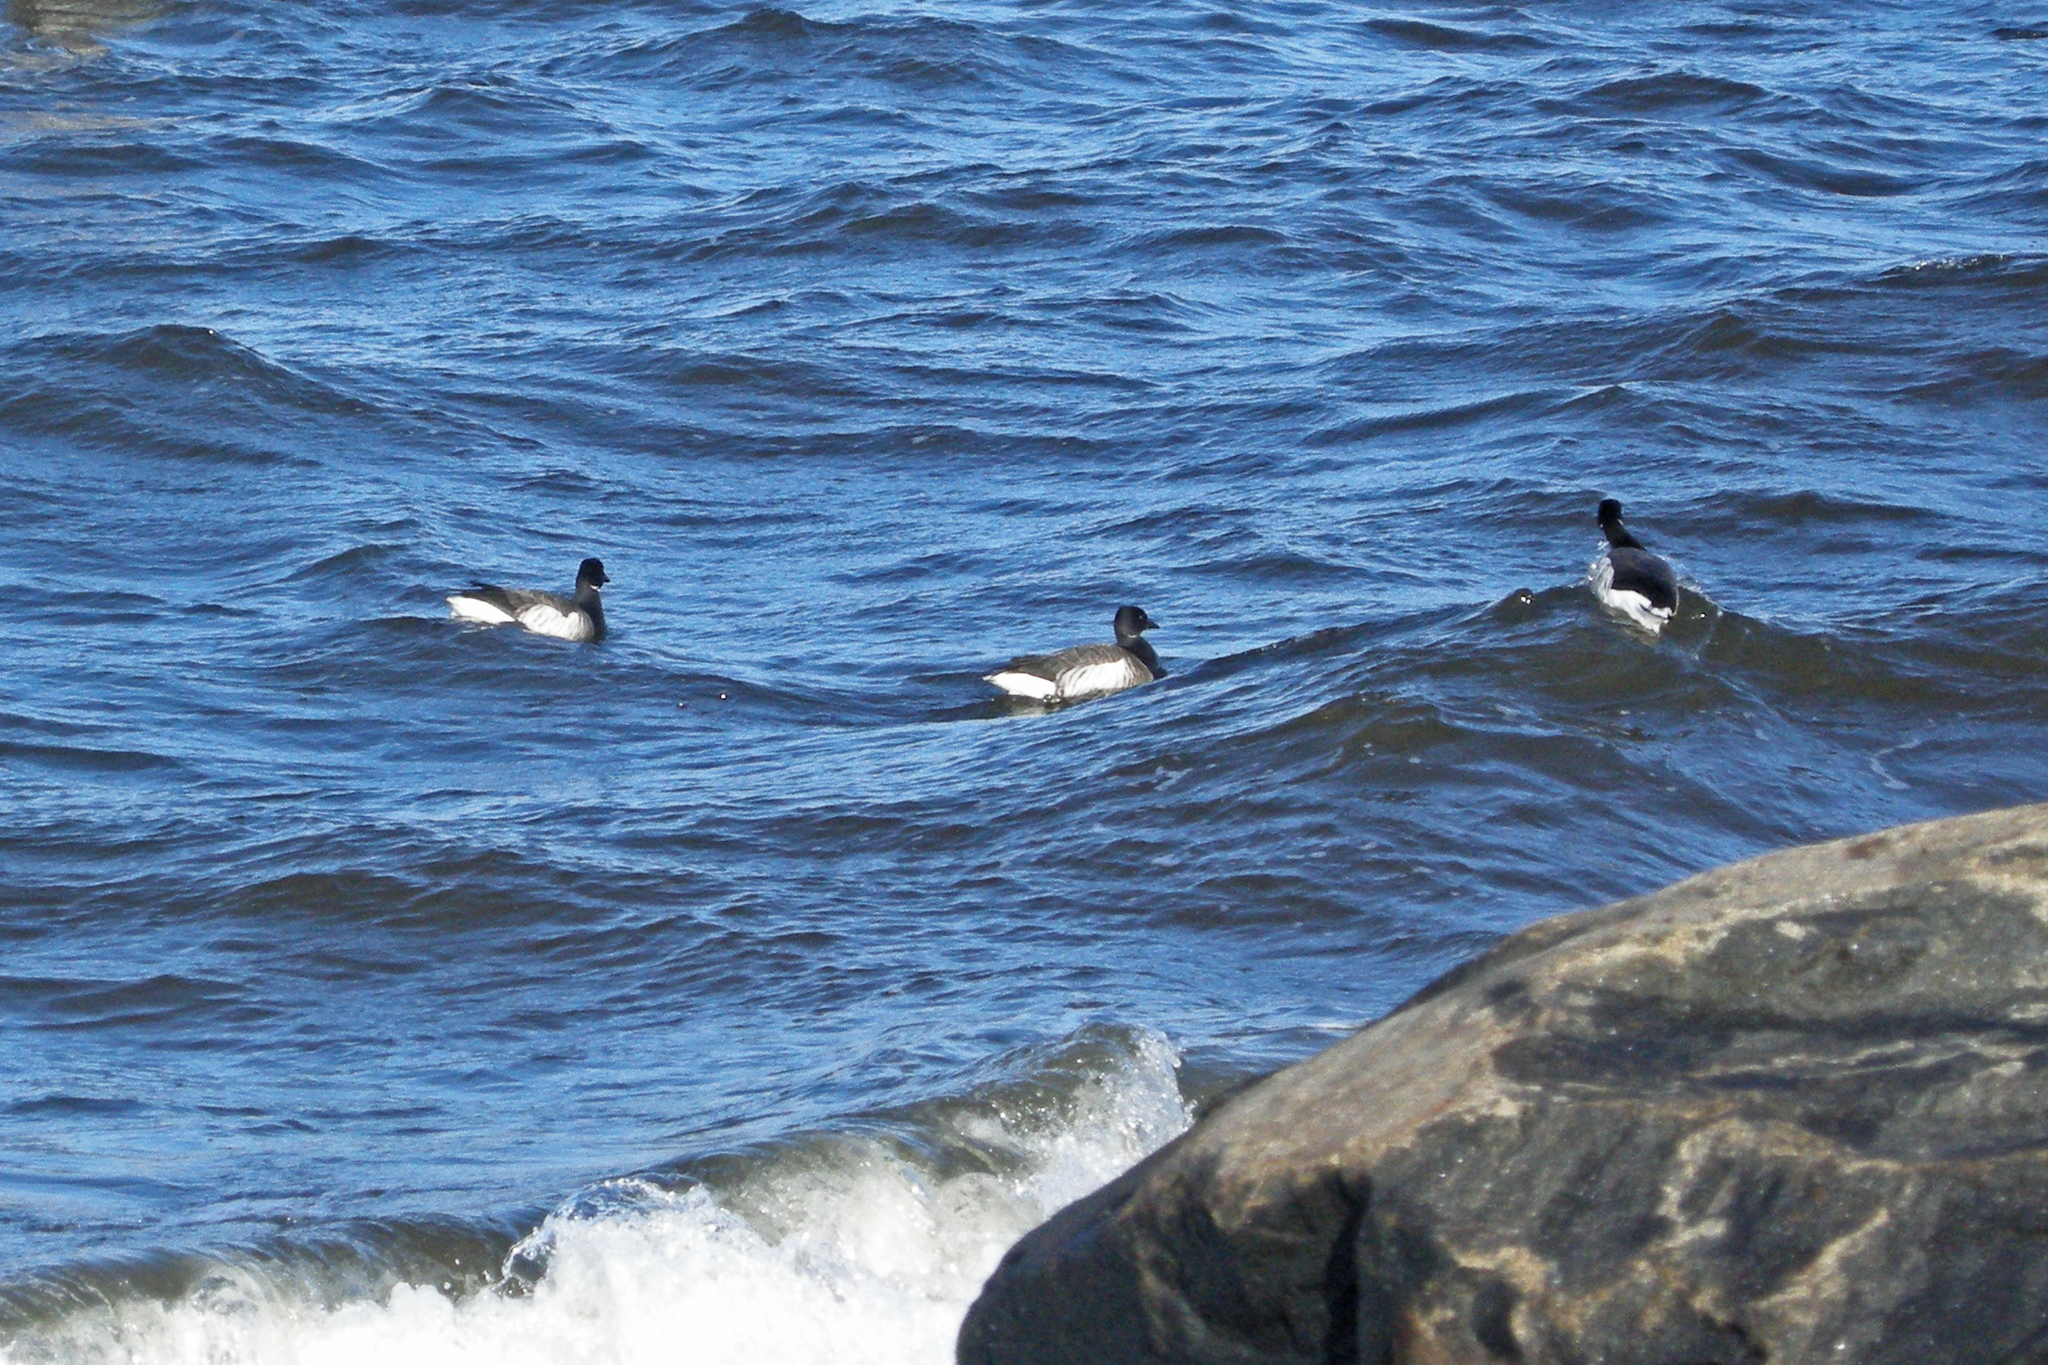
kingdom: Animalia
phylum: Chordata
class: Aves
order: Anseriformes
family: Anatidae
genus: Branta
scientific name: Branta bernicla
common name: Brant goose
